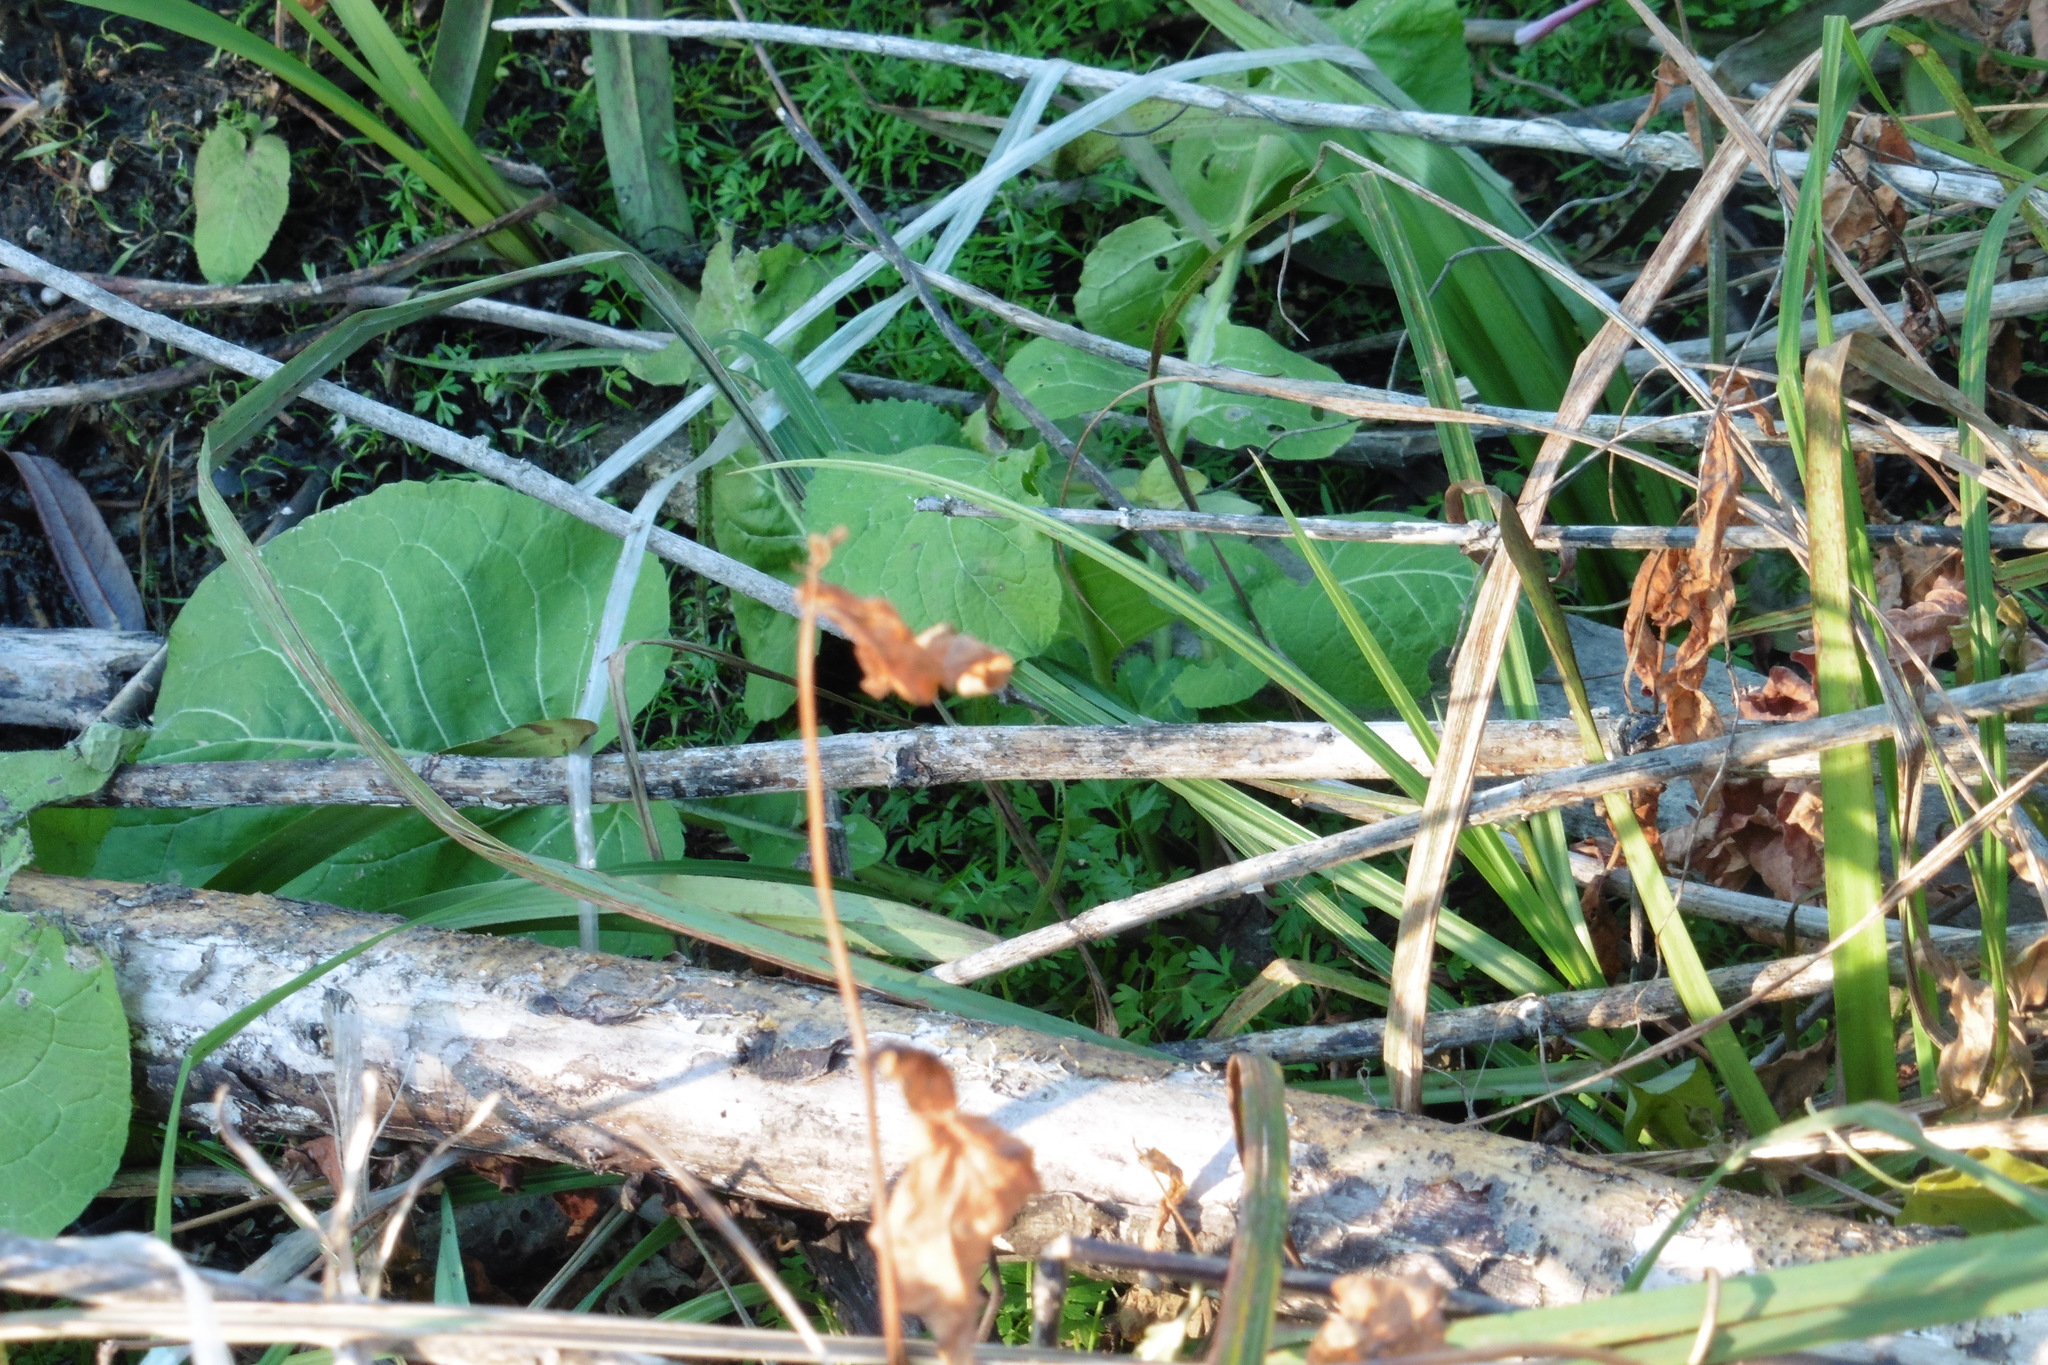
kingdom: Plantae
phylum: Tracheophyta
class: Magnoliopsida
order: Brassicales
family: Brassicaceae
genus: Rorippa
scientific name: Rorippa amphibia
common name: Great yellow-cress
